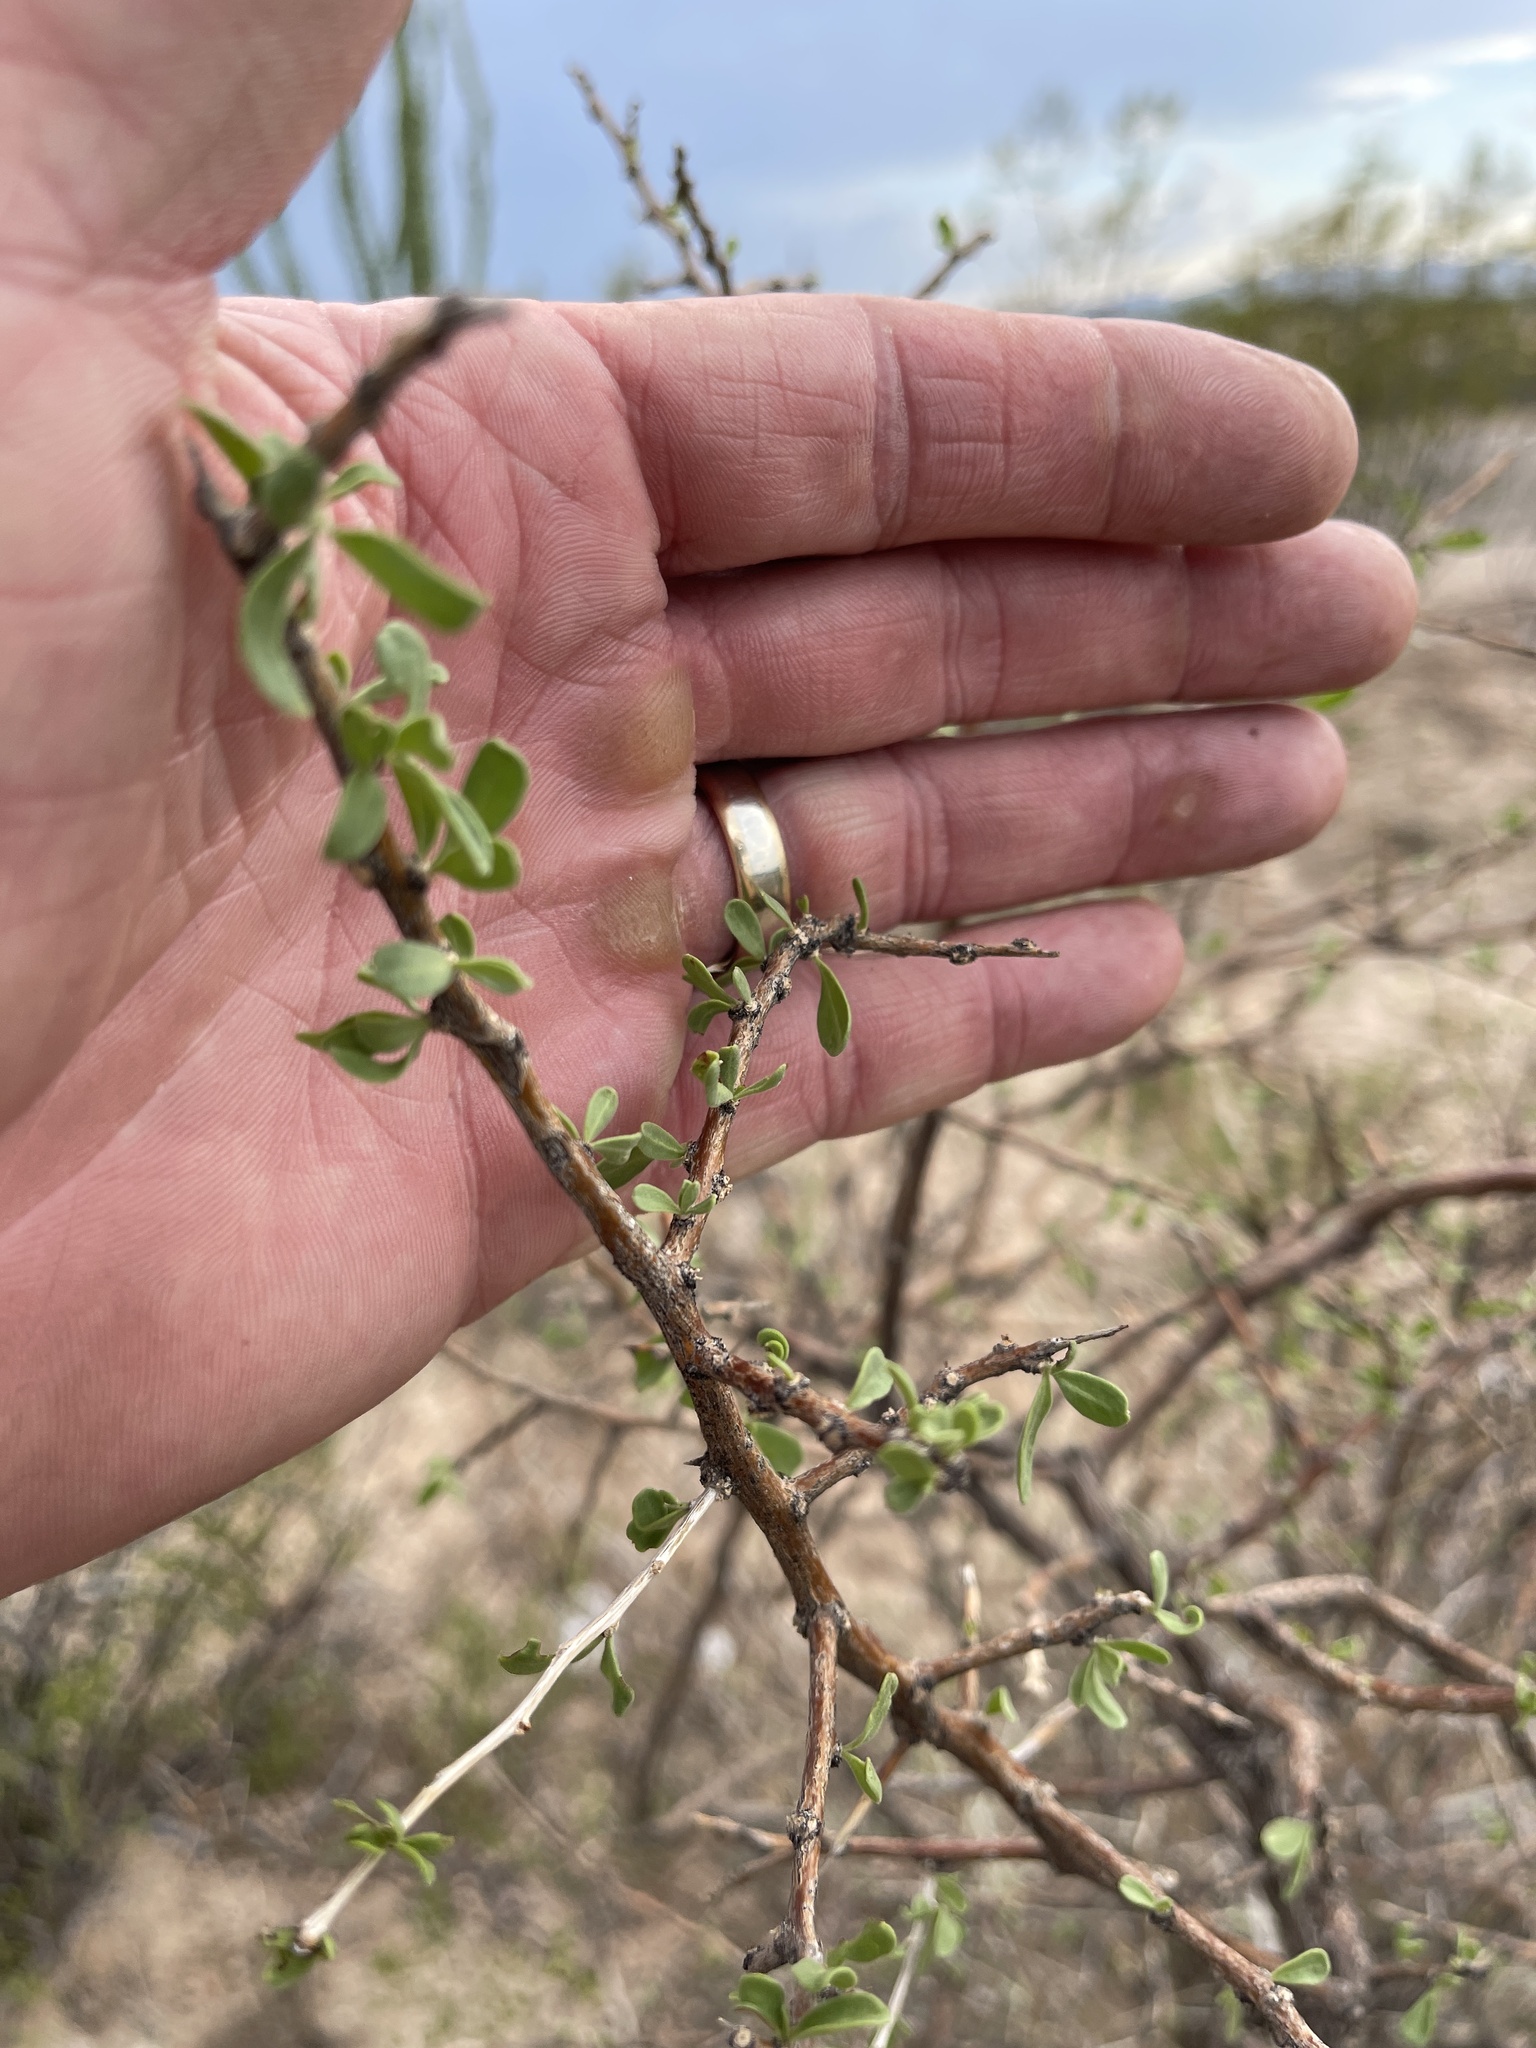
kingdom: Plantae
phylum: Tracheophyta
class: Magnoliopsida
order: Solanales
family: Solanaceae
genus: Lycium
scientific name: Lycium berlandieri
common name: Berlandier wolfberry
